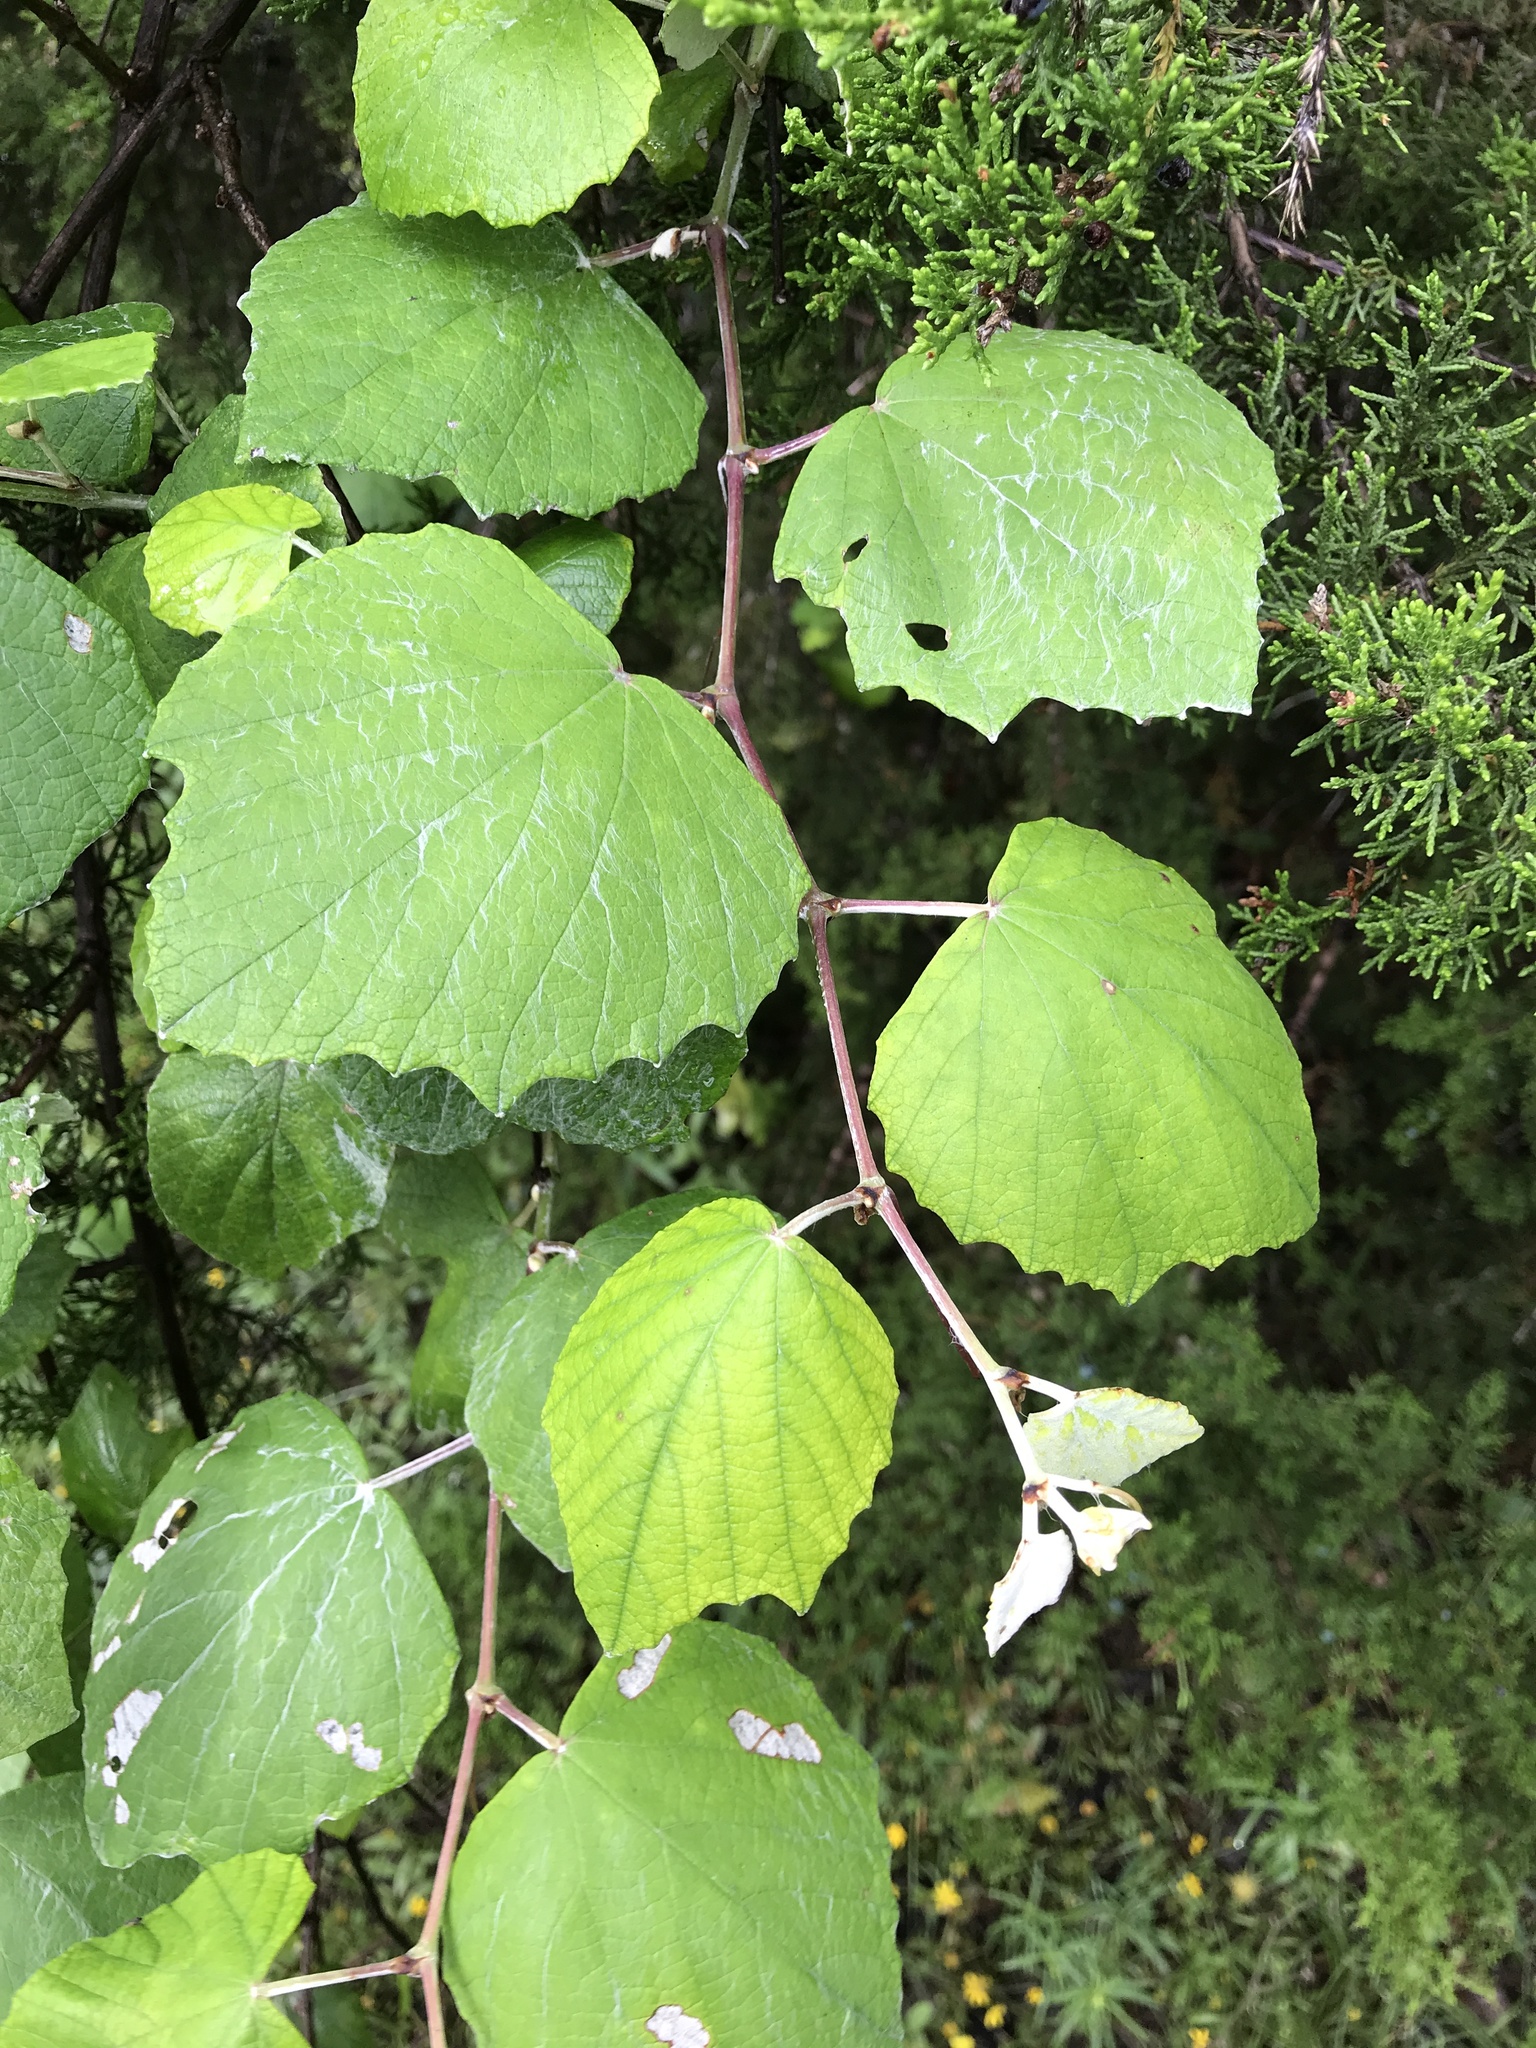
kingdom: Plantae
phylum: Tracheophyta
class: Magnoliopsida
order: Vitales
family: Vitaceae
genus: Vitis
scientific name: Vitis mustangensis
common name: Mustang grape
